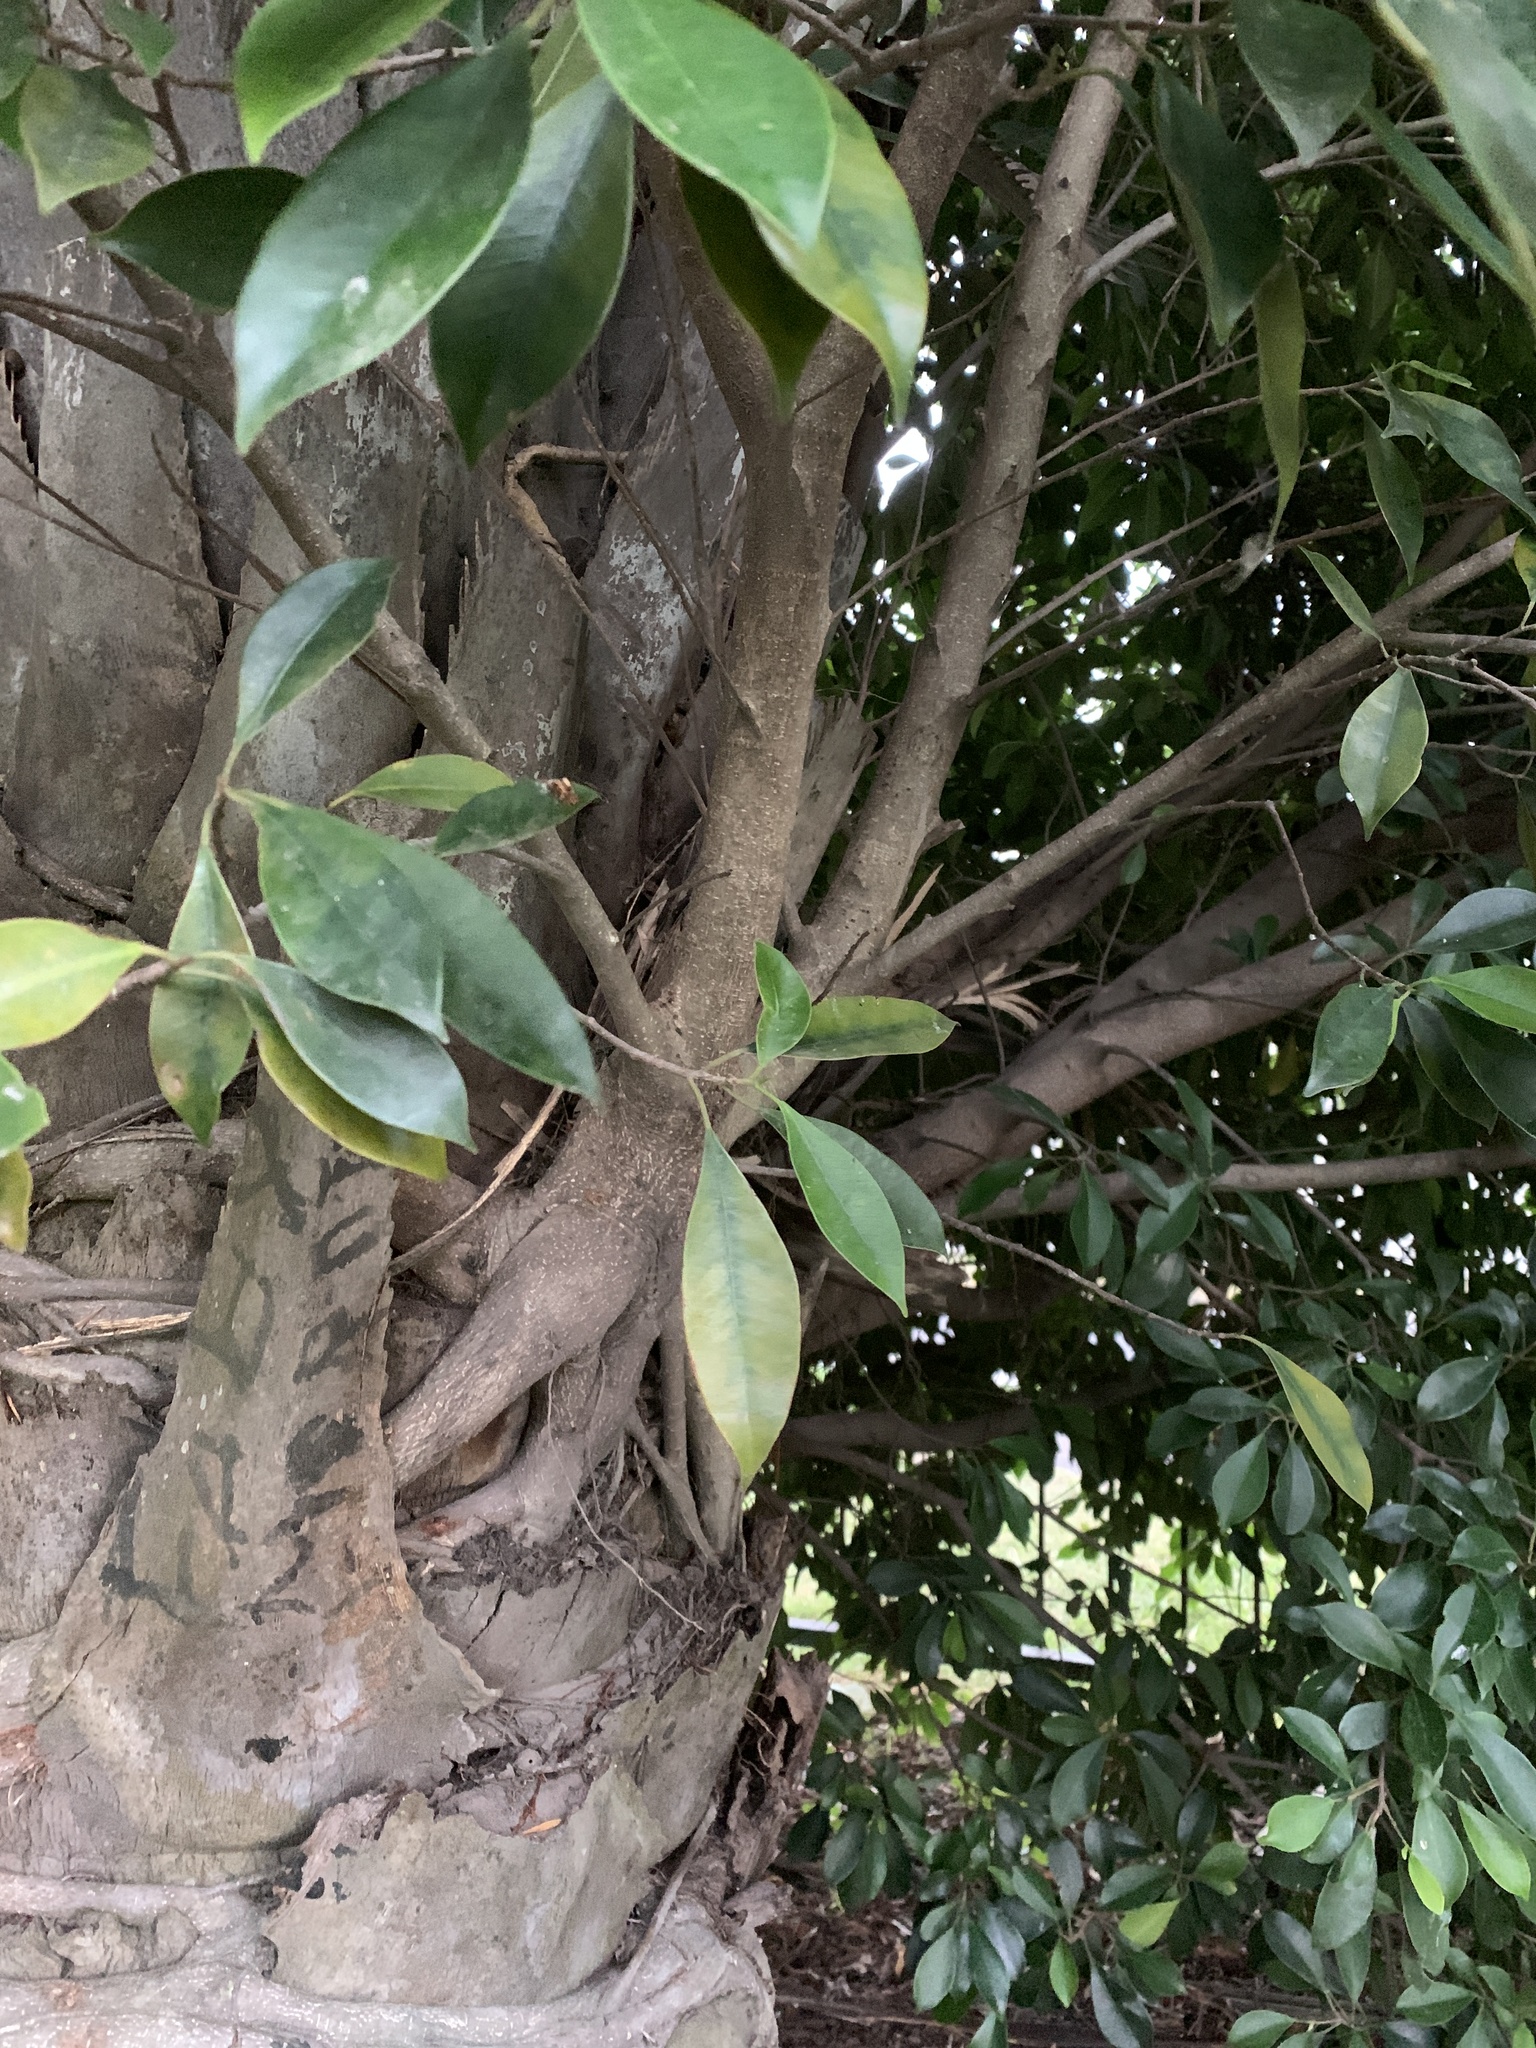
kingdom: Plantae
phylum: Tracheophyta
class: Magnoliopsida
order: Rosales
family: Moraceae
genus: Ficus
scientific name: Ficus luschnathiana
